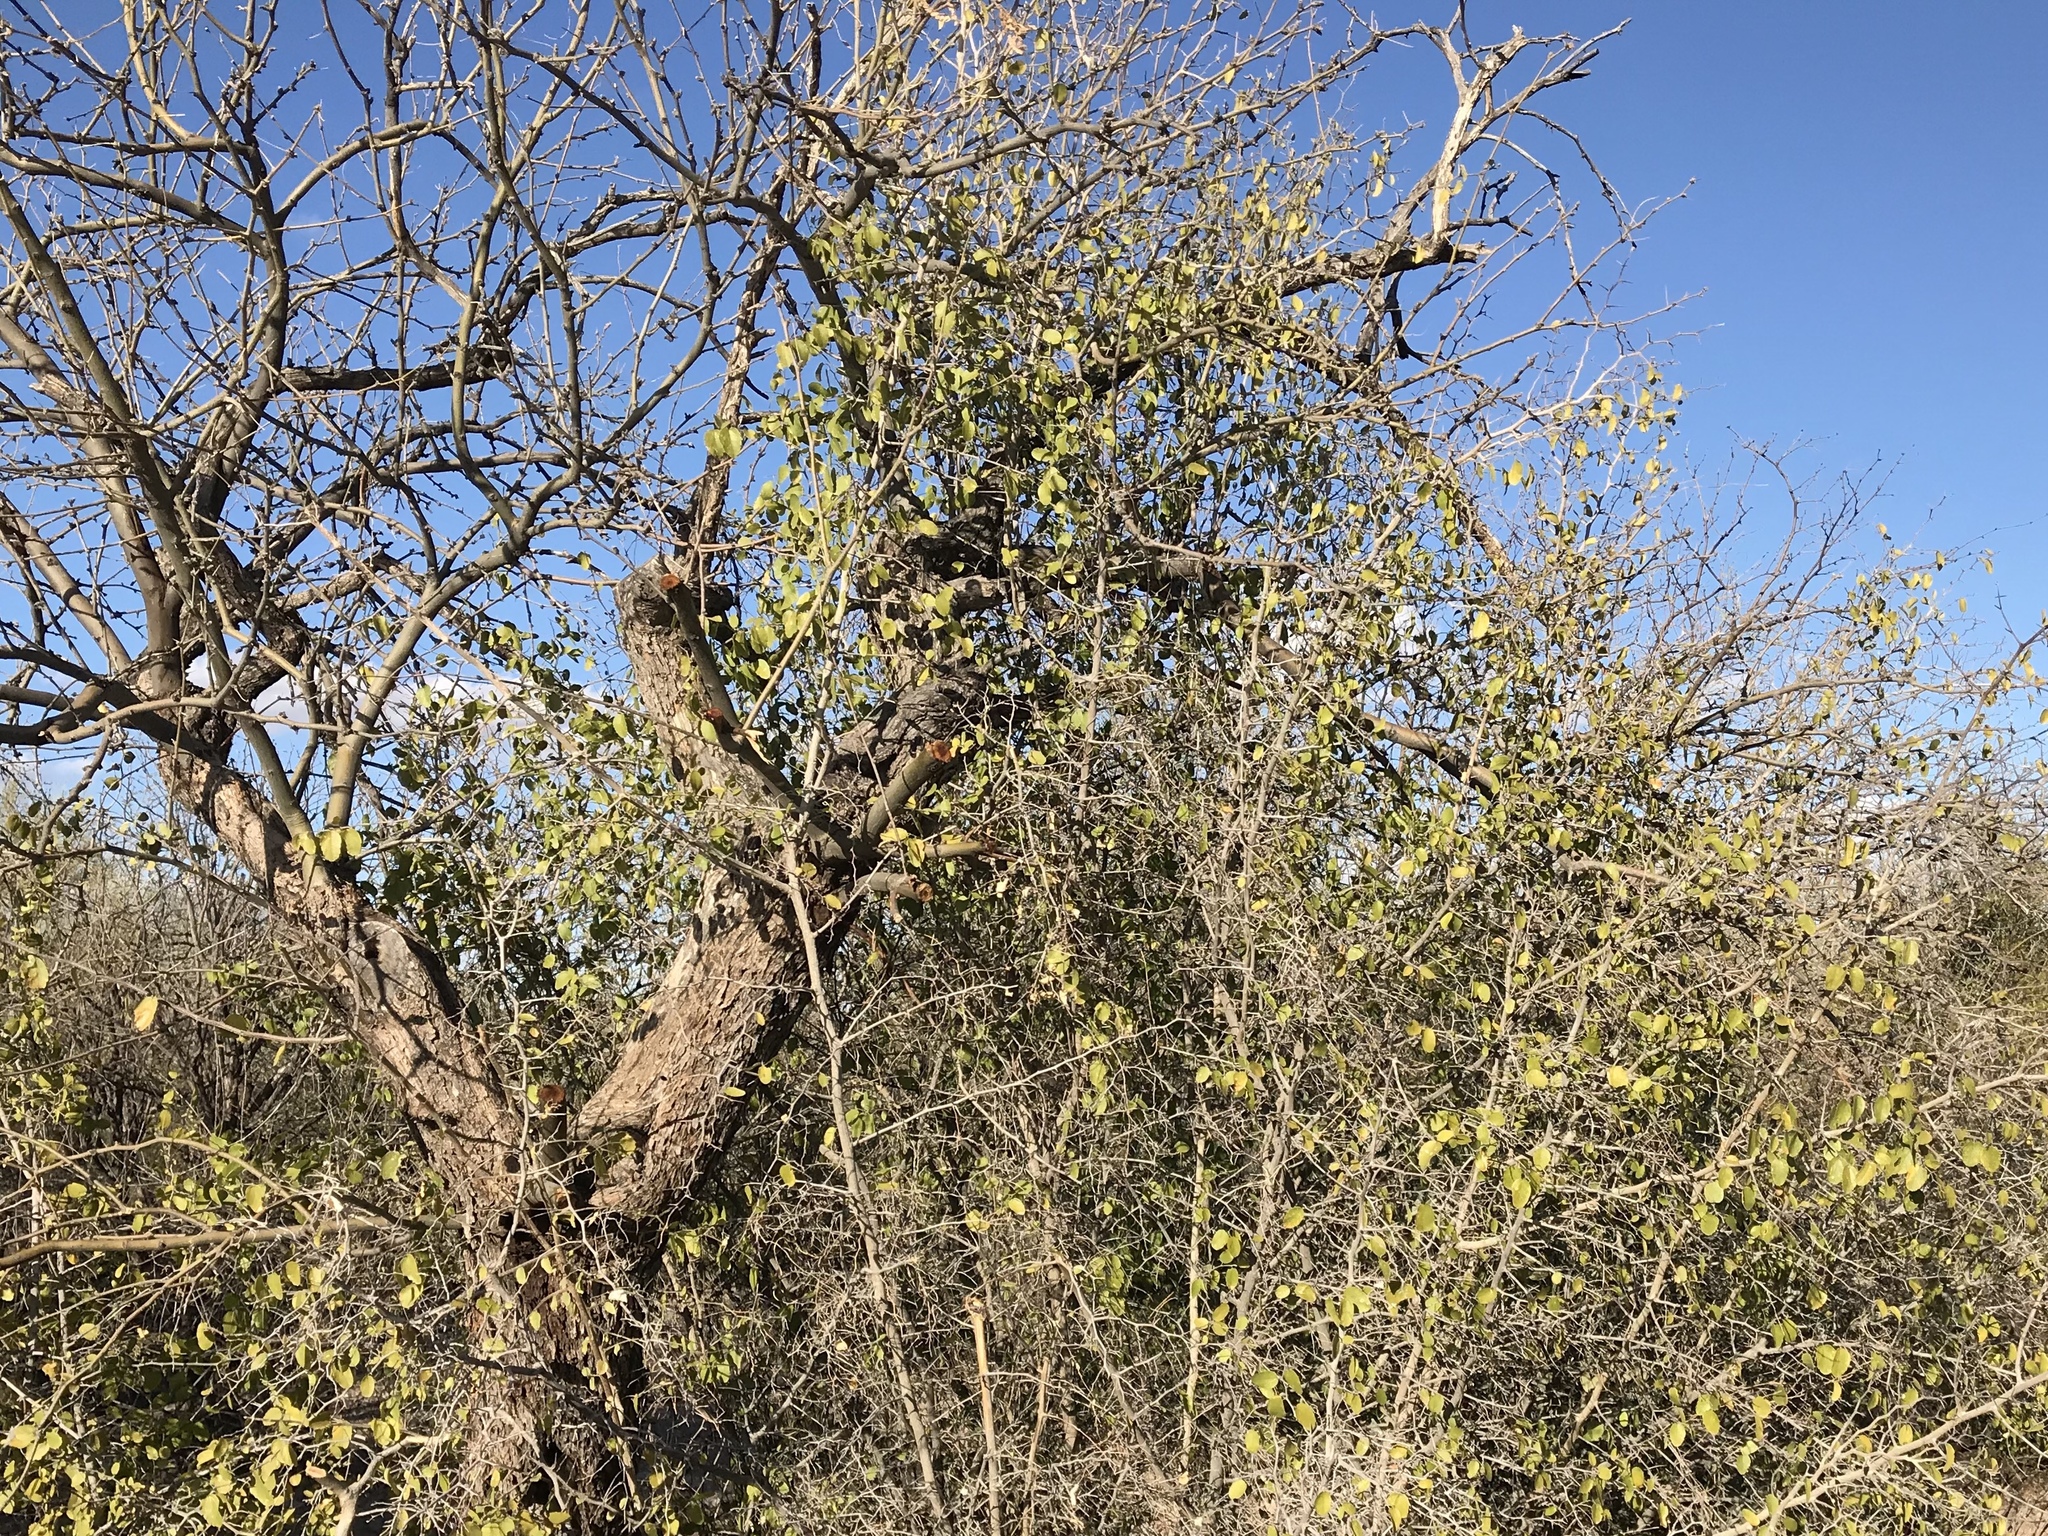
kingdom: Plantae
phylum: Tracheophyta
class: Magnoliopsida
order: Rosales
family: Cannabaceae
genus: Celtis
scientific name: Celtis pallida
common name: Desert hackberry
